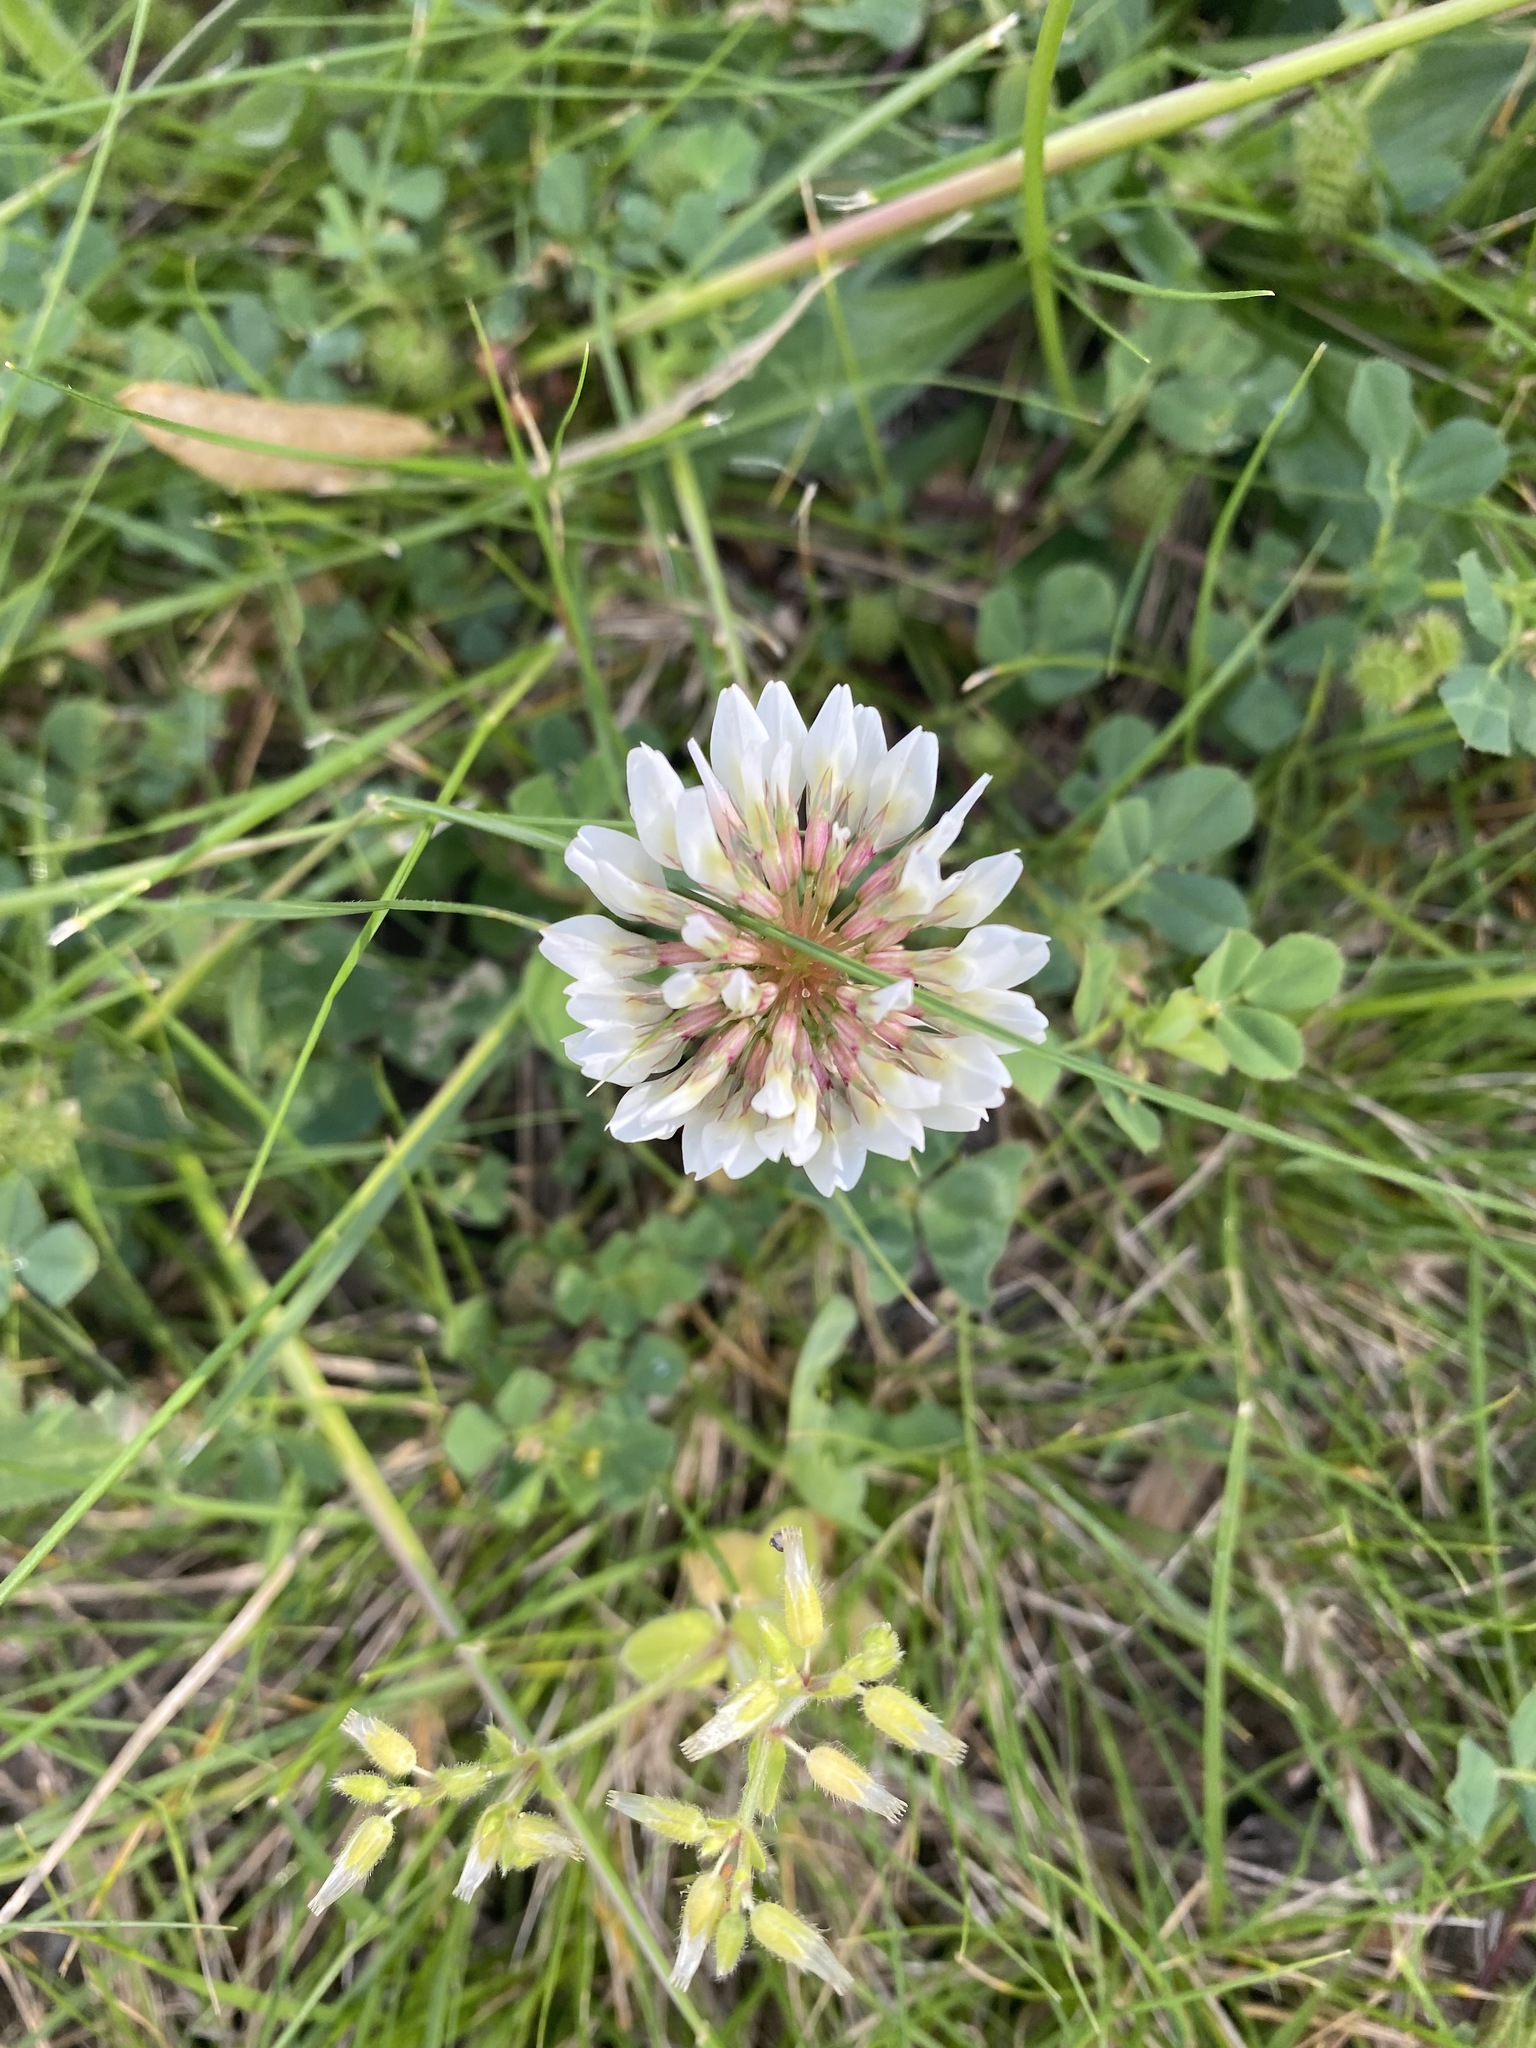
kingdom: Plantae
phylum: Tracheophyta
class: Magnoliopsida
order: Fabales
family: Fabaceae
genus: Trifolium
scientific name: Trifolium repens
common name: White clover
